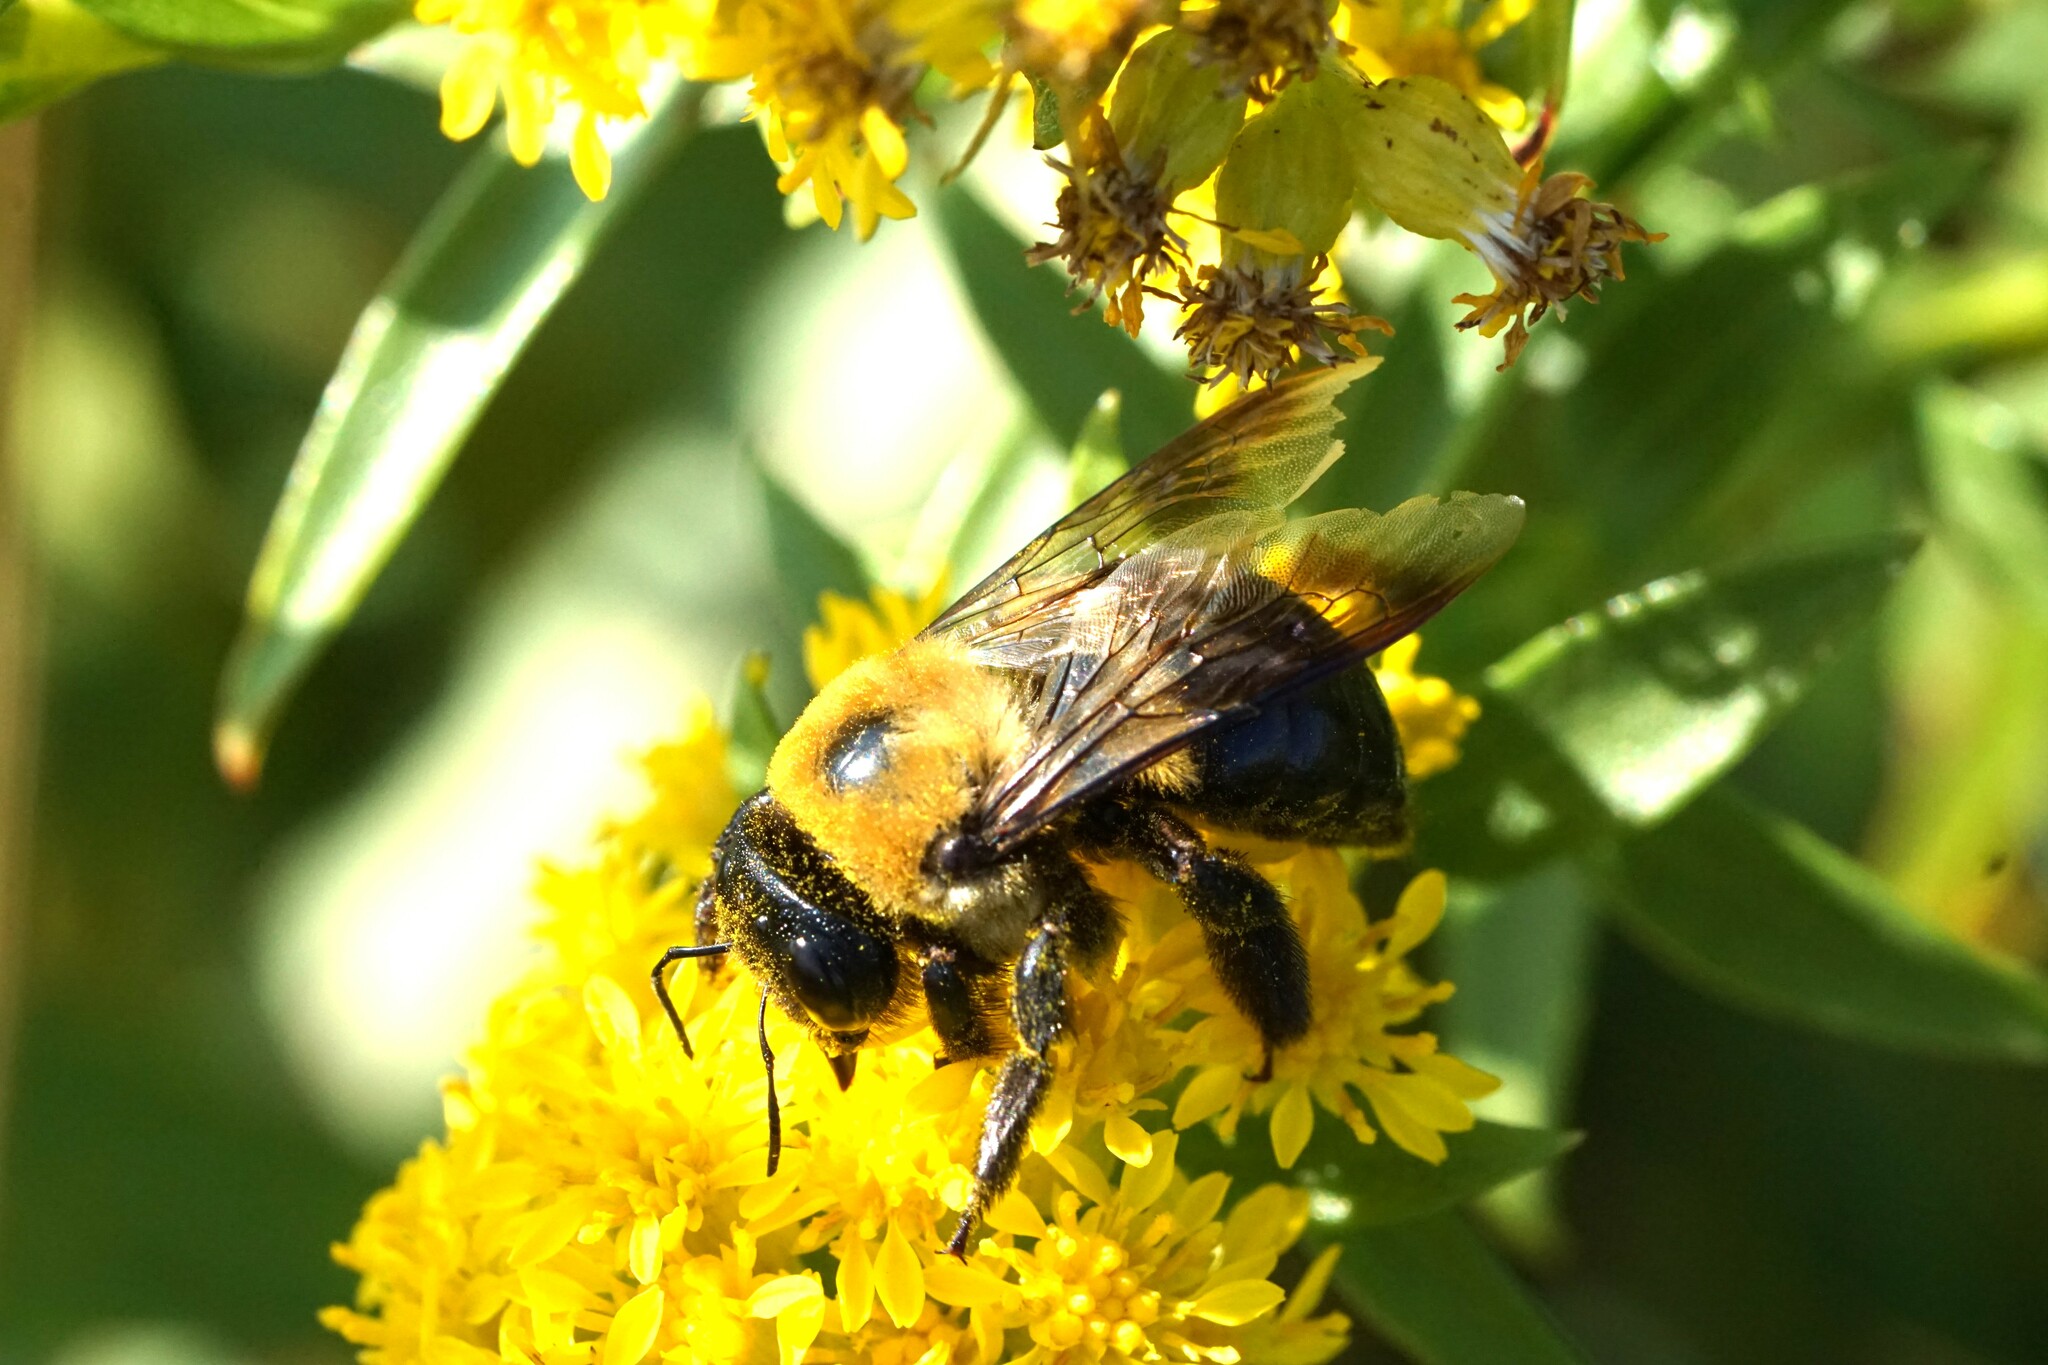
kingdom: Animalia
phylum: Arthropoda
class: Insecta
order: Hymenoptera
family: Apidae
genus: Xylocopa
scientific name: Xylocopa virginica
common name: Carpenter bee
